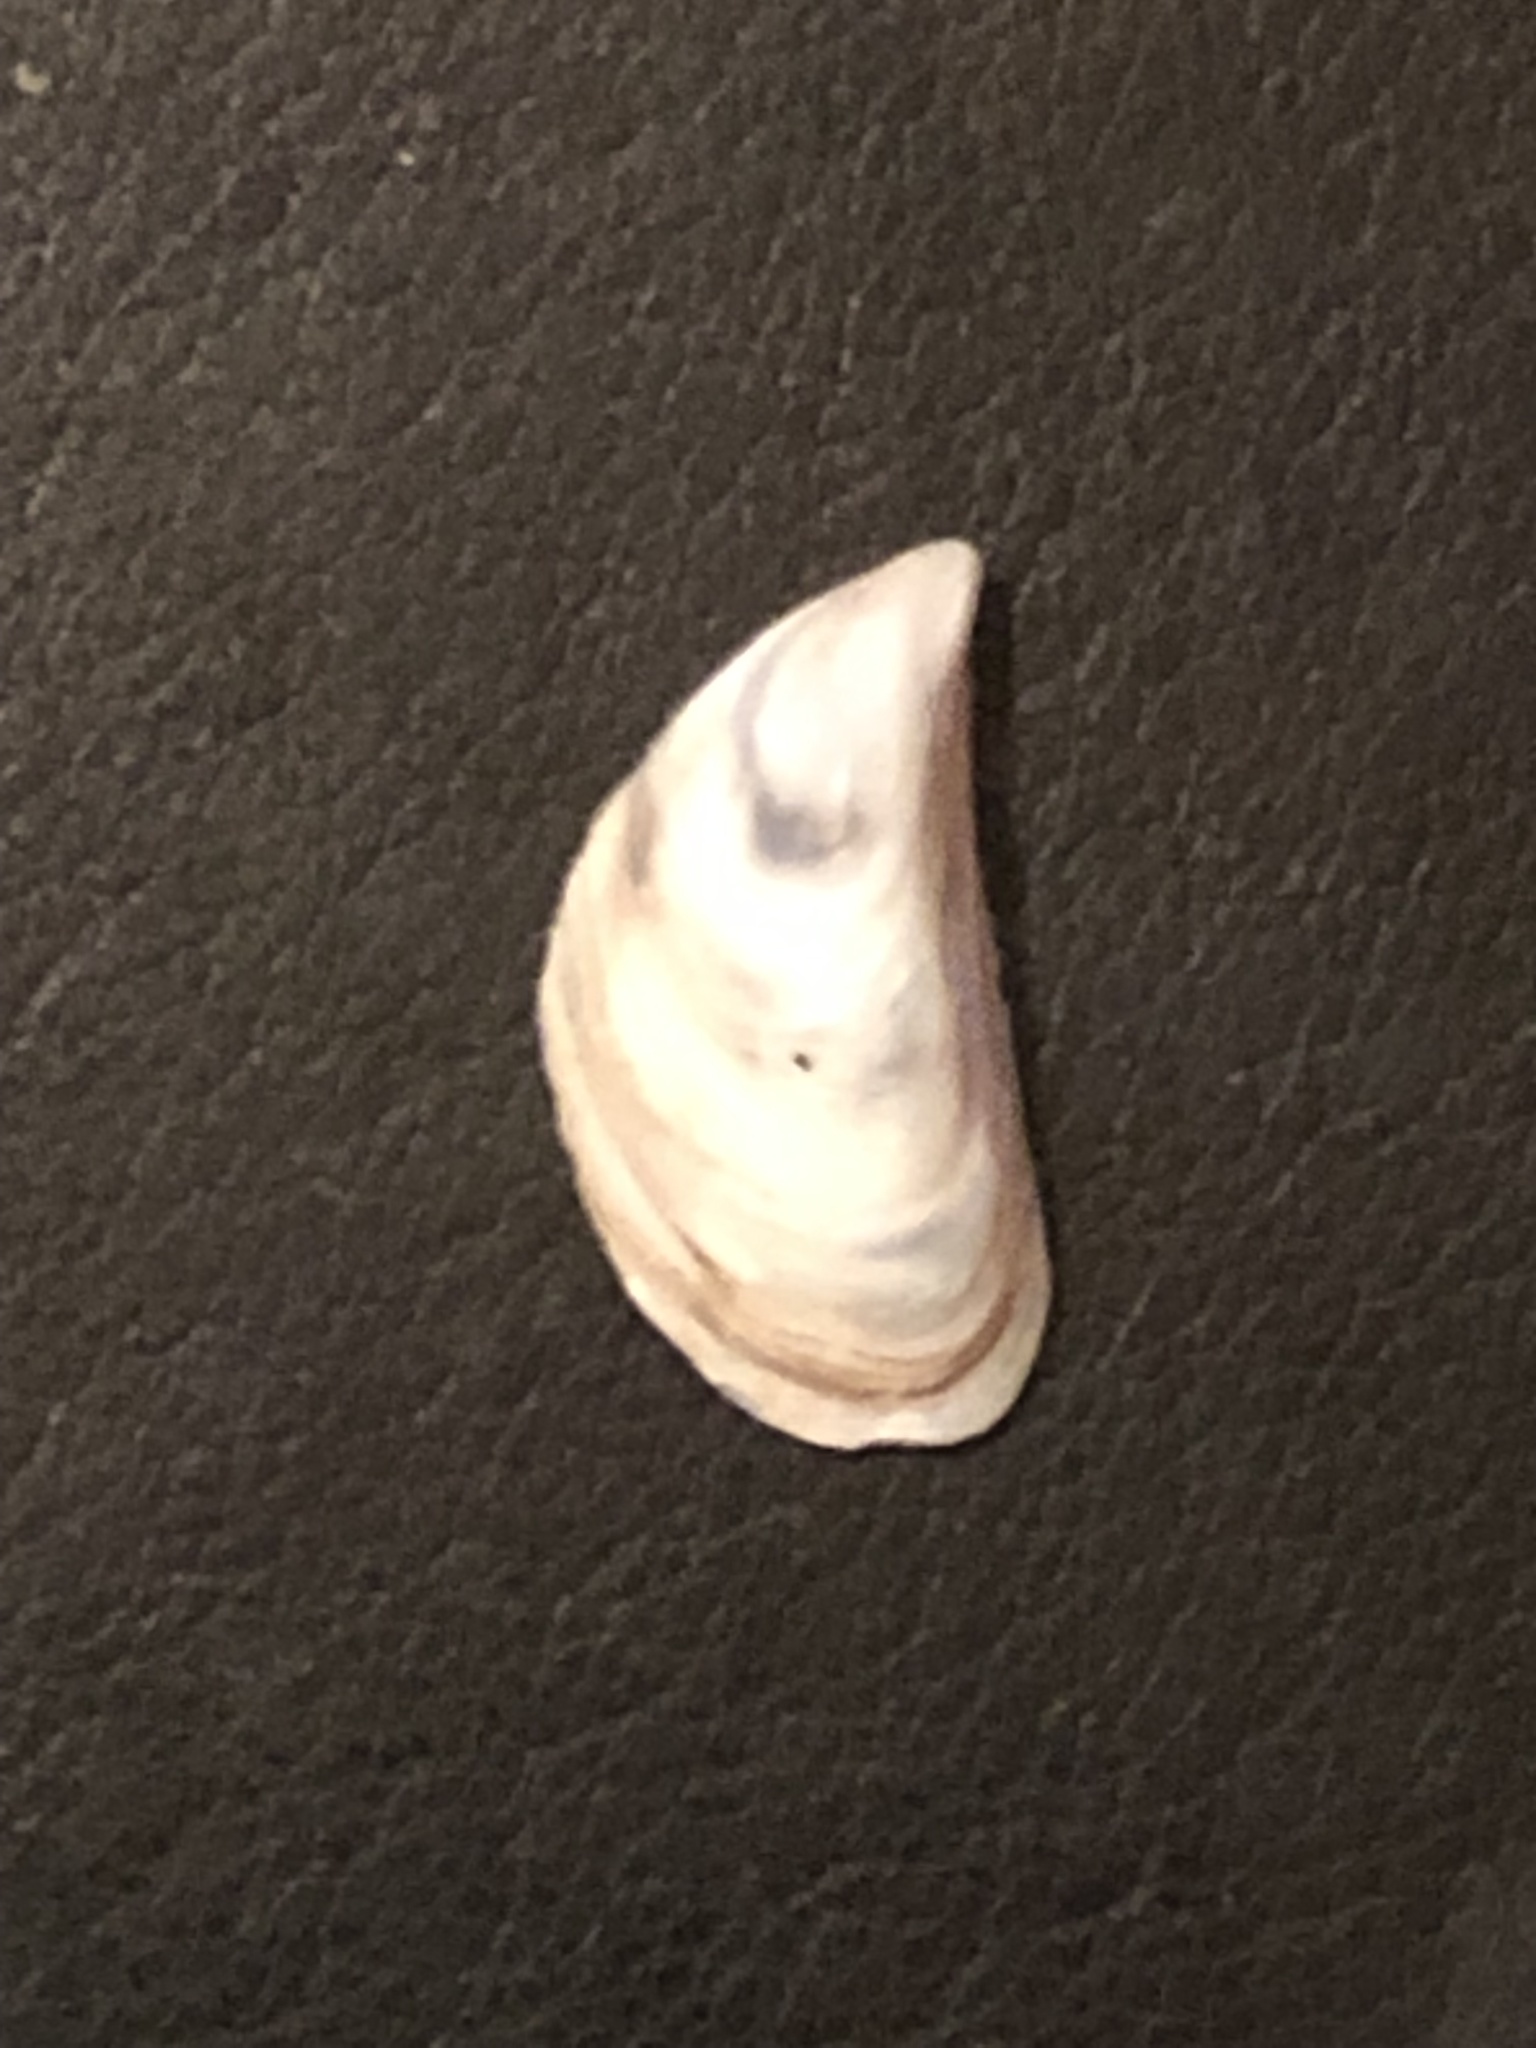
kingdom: Animalia
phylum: Mollusca
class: Bivalvia
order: Myida
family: Dreissenidae
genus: Dreissena
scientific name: Dreissena bugensis
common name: Quagga mussel
